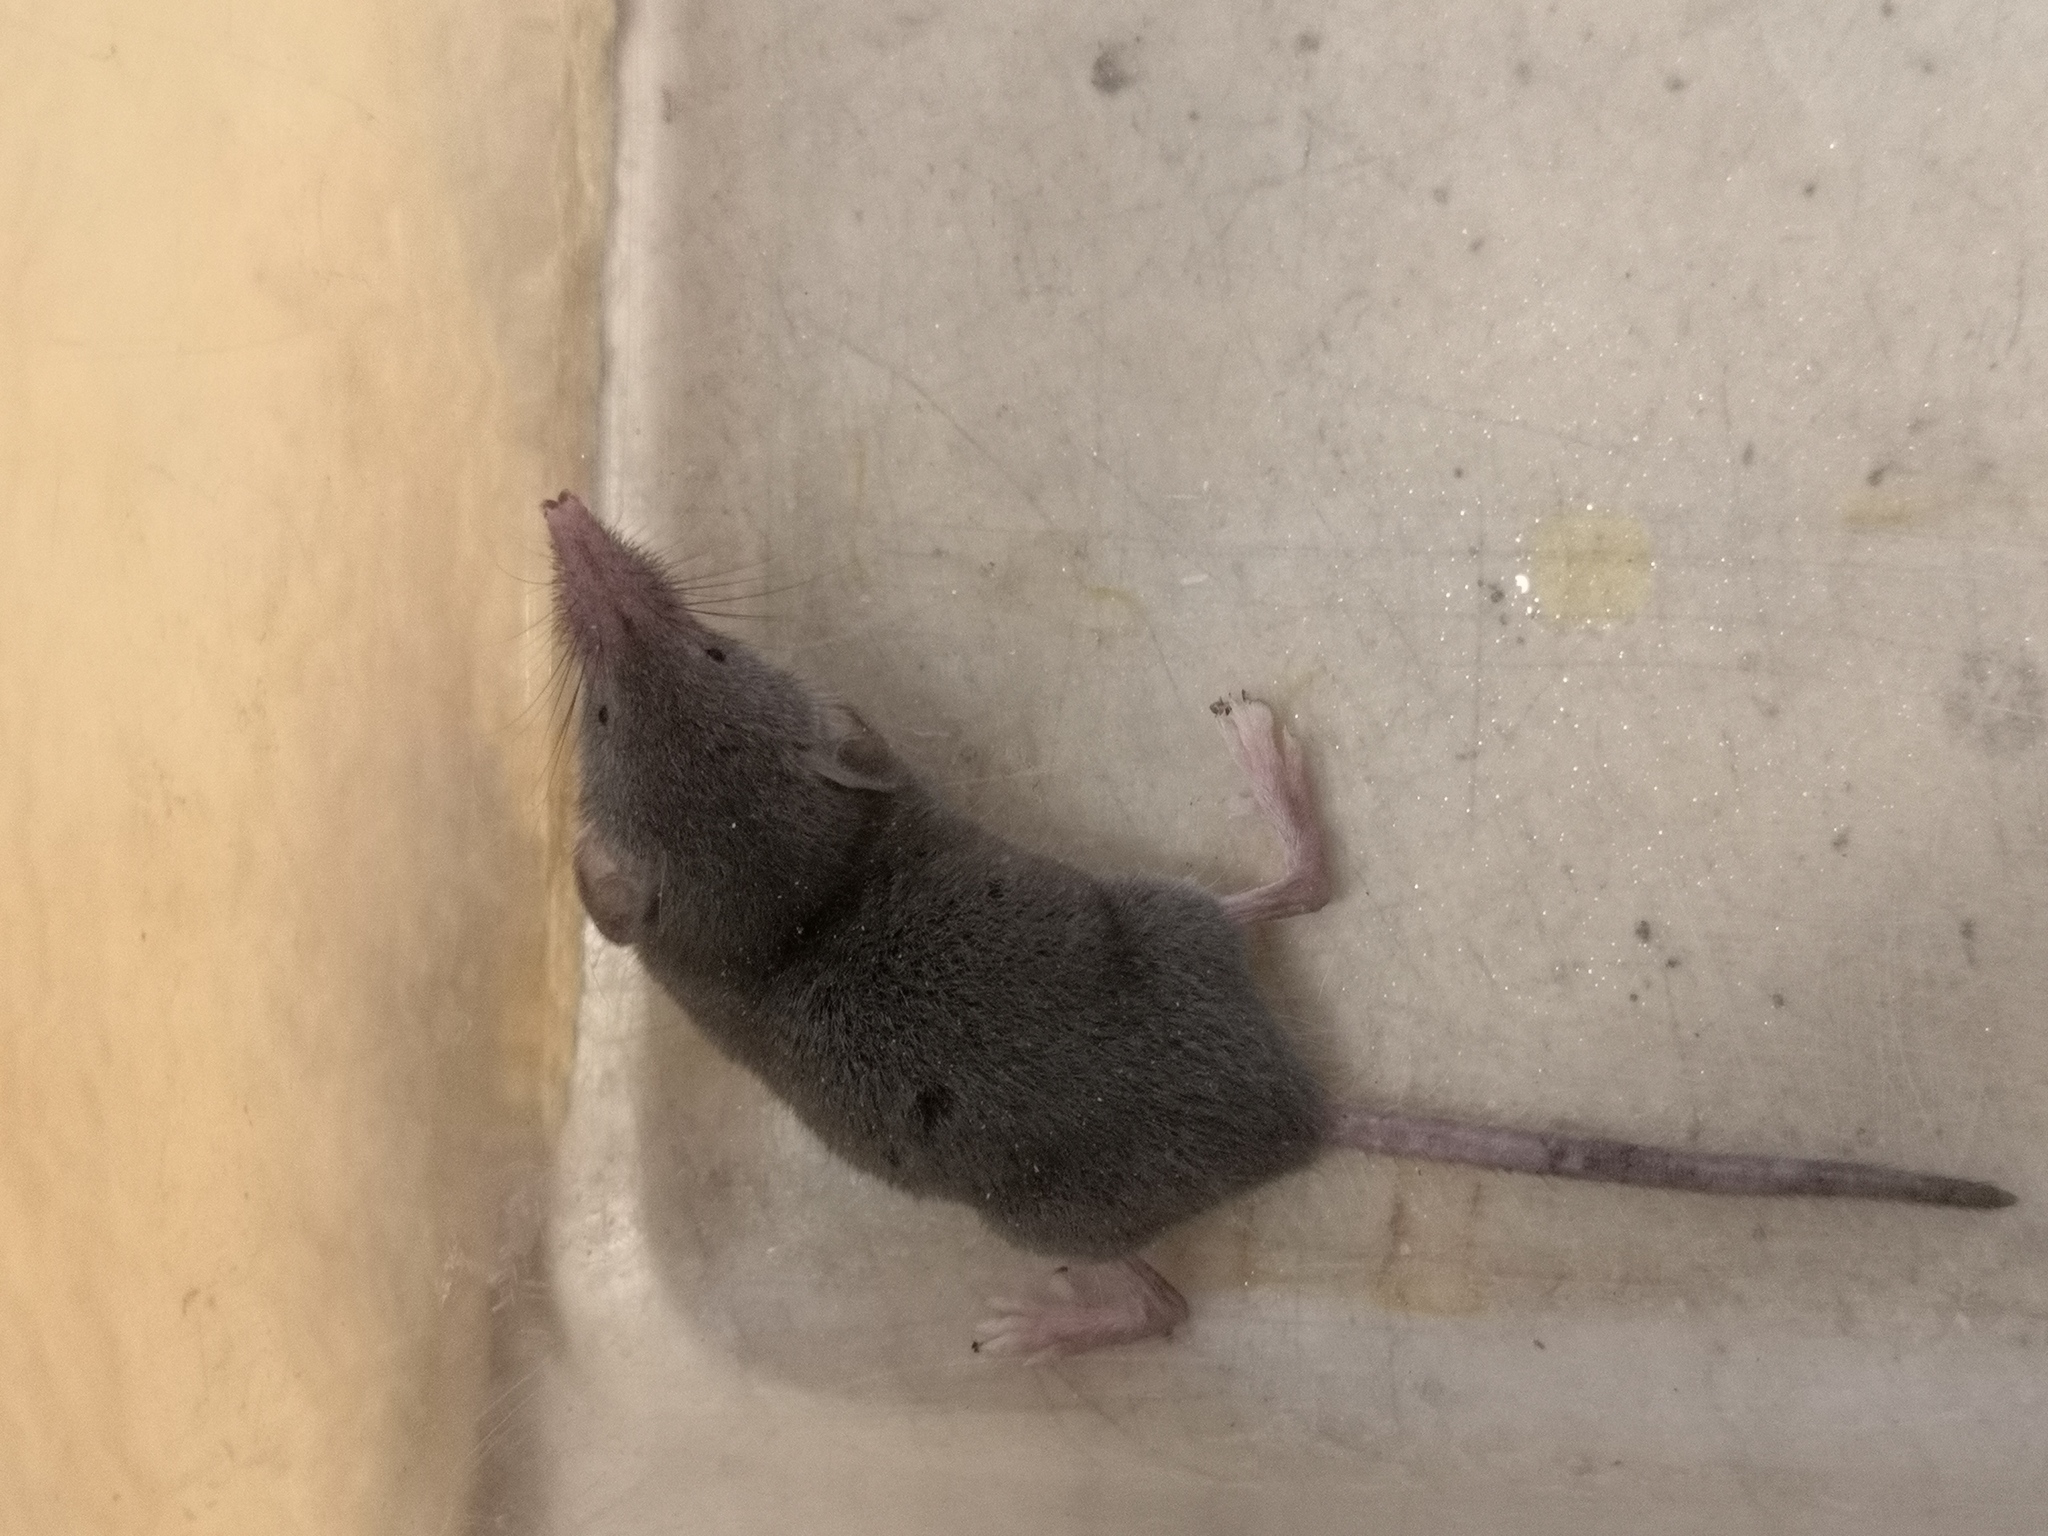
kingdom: Animalia
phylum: Chordata
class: Mammalia
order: Soricomorpha
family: Soricidae
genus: Crocidura
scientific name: Crocidura suaveolens
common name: Lesser white-toothed shrew
